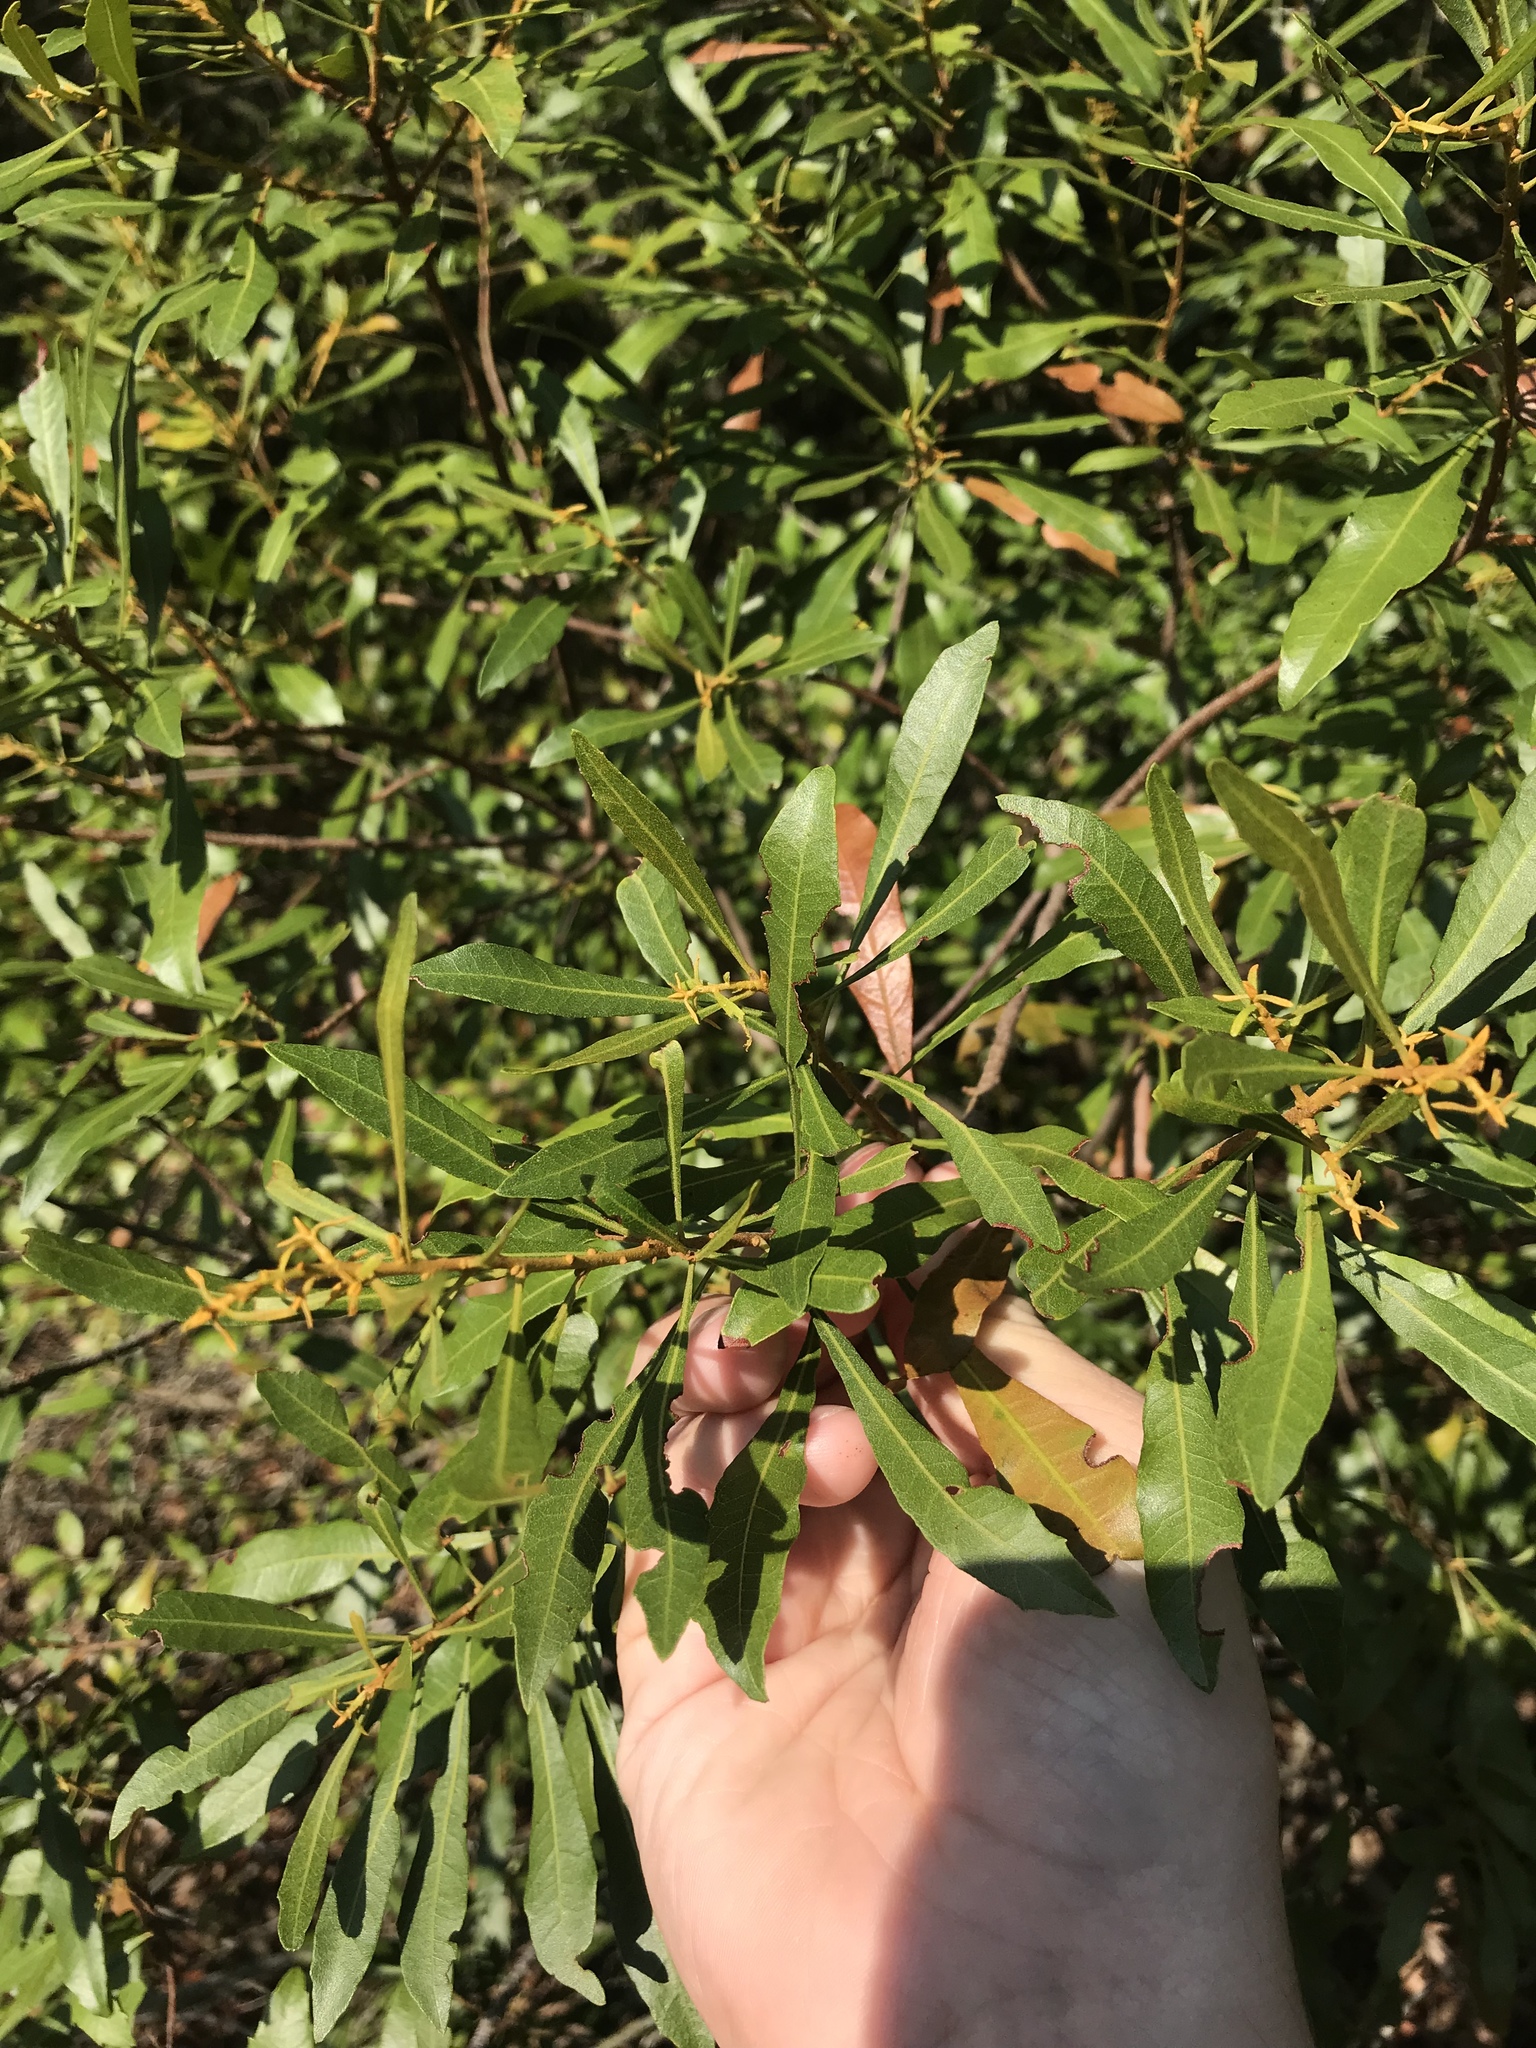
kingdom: Plantae
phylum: Tracheophyta
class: Magnoliopsida
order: Fagales
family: Myricaceae
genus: Morella
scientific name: Morella cerifera
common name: Wax myrtle
